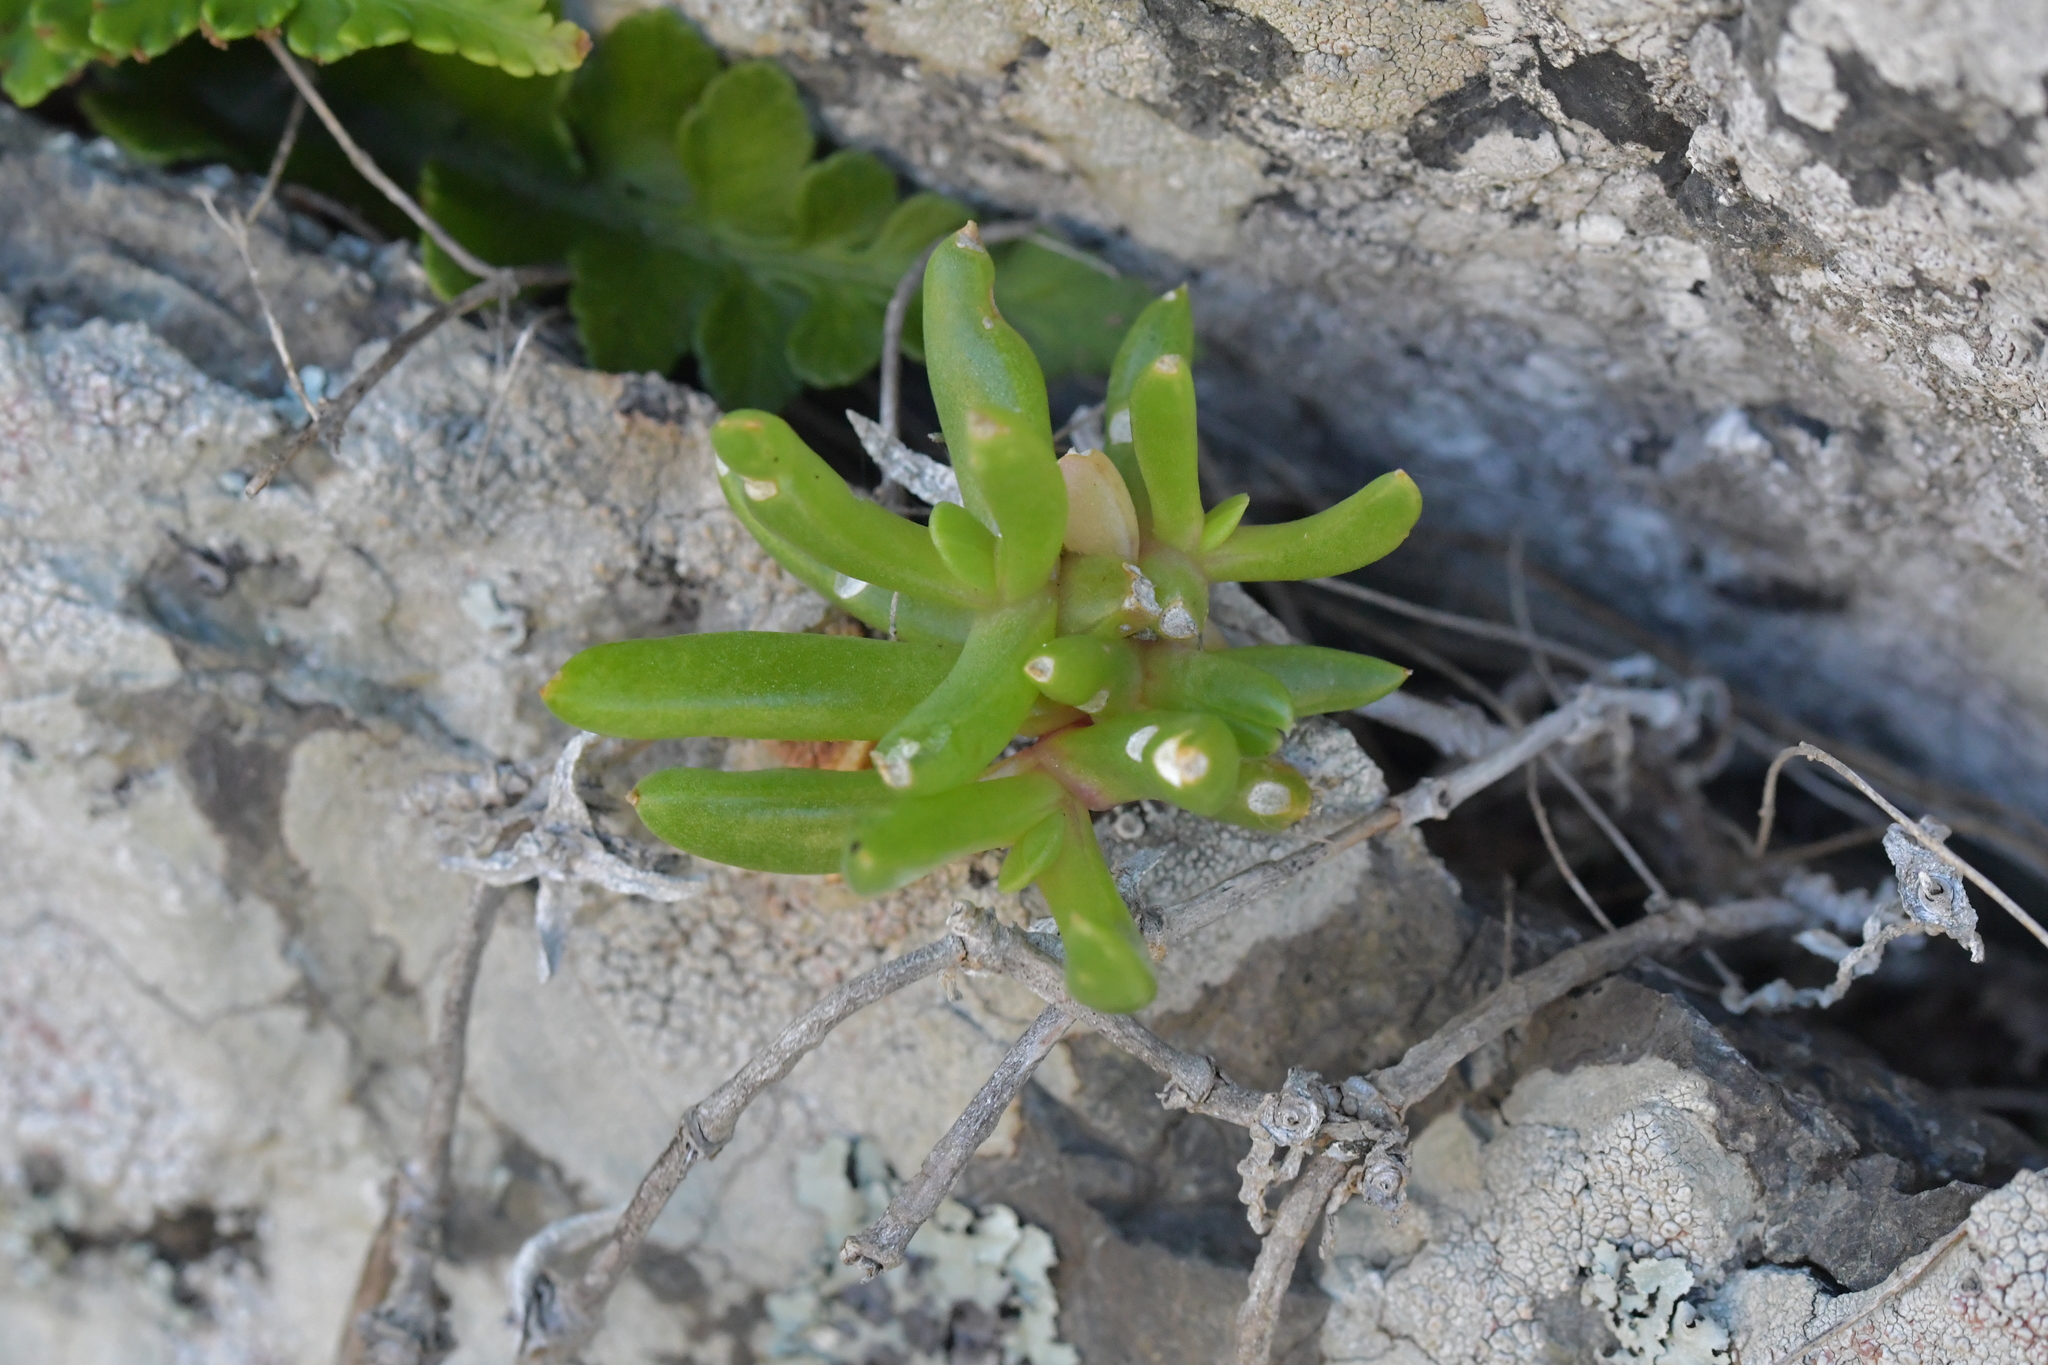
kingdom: Plantae
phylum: Tracheophyta
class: Magnoliopsida
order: Caryophyllales
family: Aizoaceae
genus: Disphyma
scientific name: Disphyma australe
